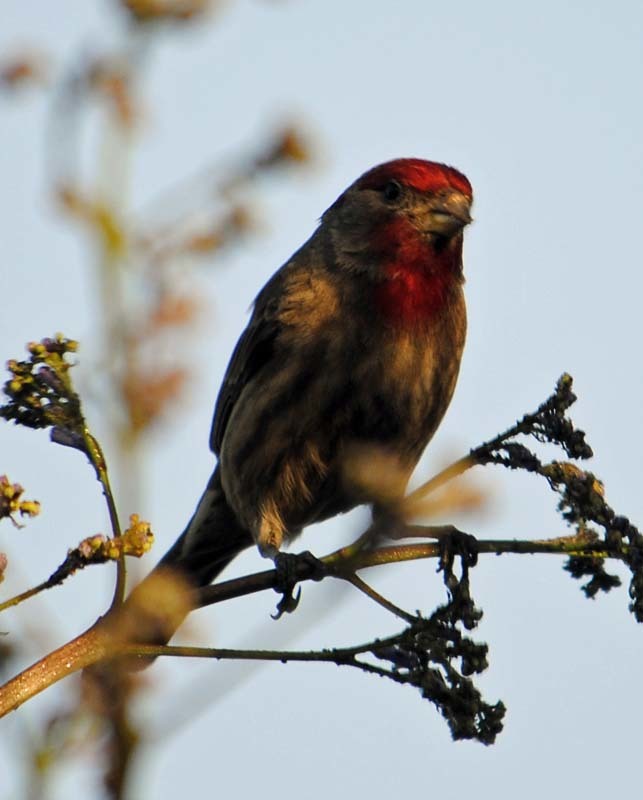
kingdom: Animalia
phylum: Chordata
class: Aves
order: Passeriformes
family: Fringillidae
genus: Haemorhous
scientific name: Haemorhous mexicanus
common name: House finch
